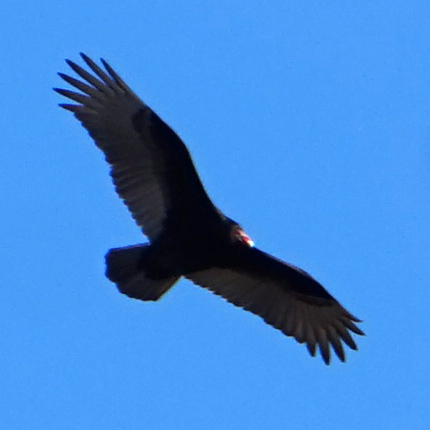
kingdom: Animalia
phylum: Chordata
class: Aves
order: Accipitriformes
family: Cathartidae
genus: Cathartes
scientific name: Cathartes aura
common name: Turkey vulture
